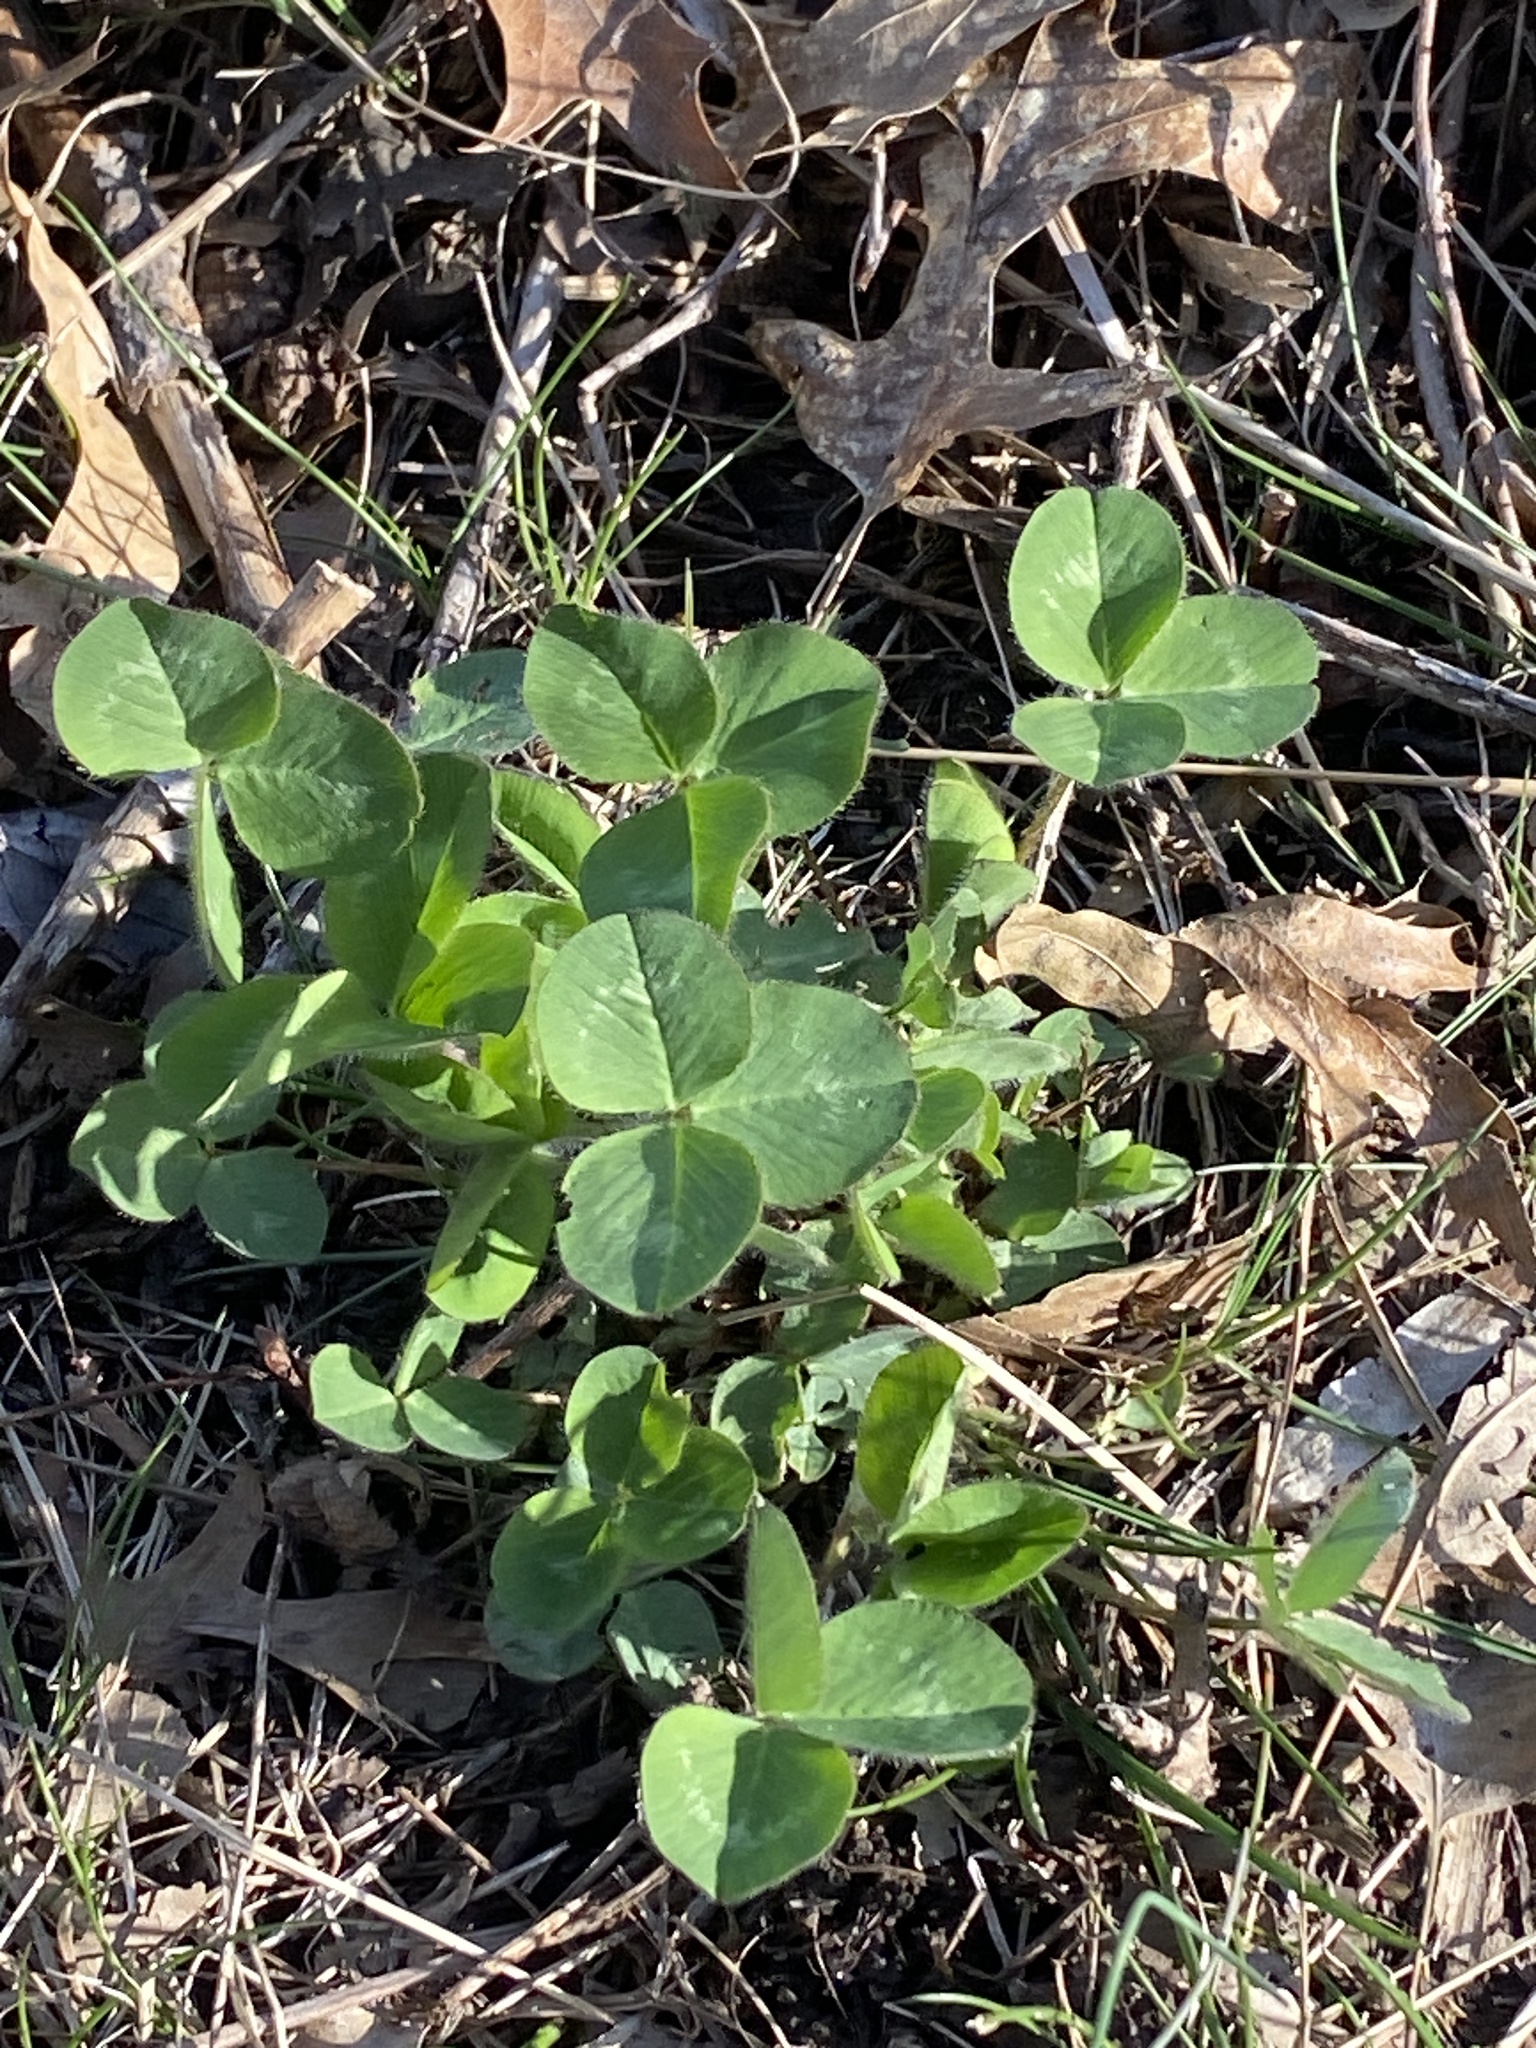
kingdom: Plantae
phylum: Tracheophyta
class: Magnoliopsida
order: Fabales
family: Fabaceae
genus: Trifolium
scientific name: Trifolium pratense
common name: Red clover
